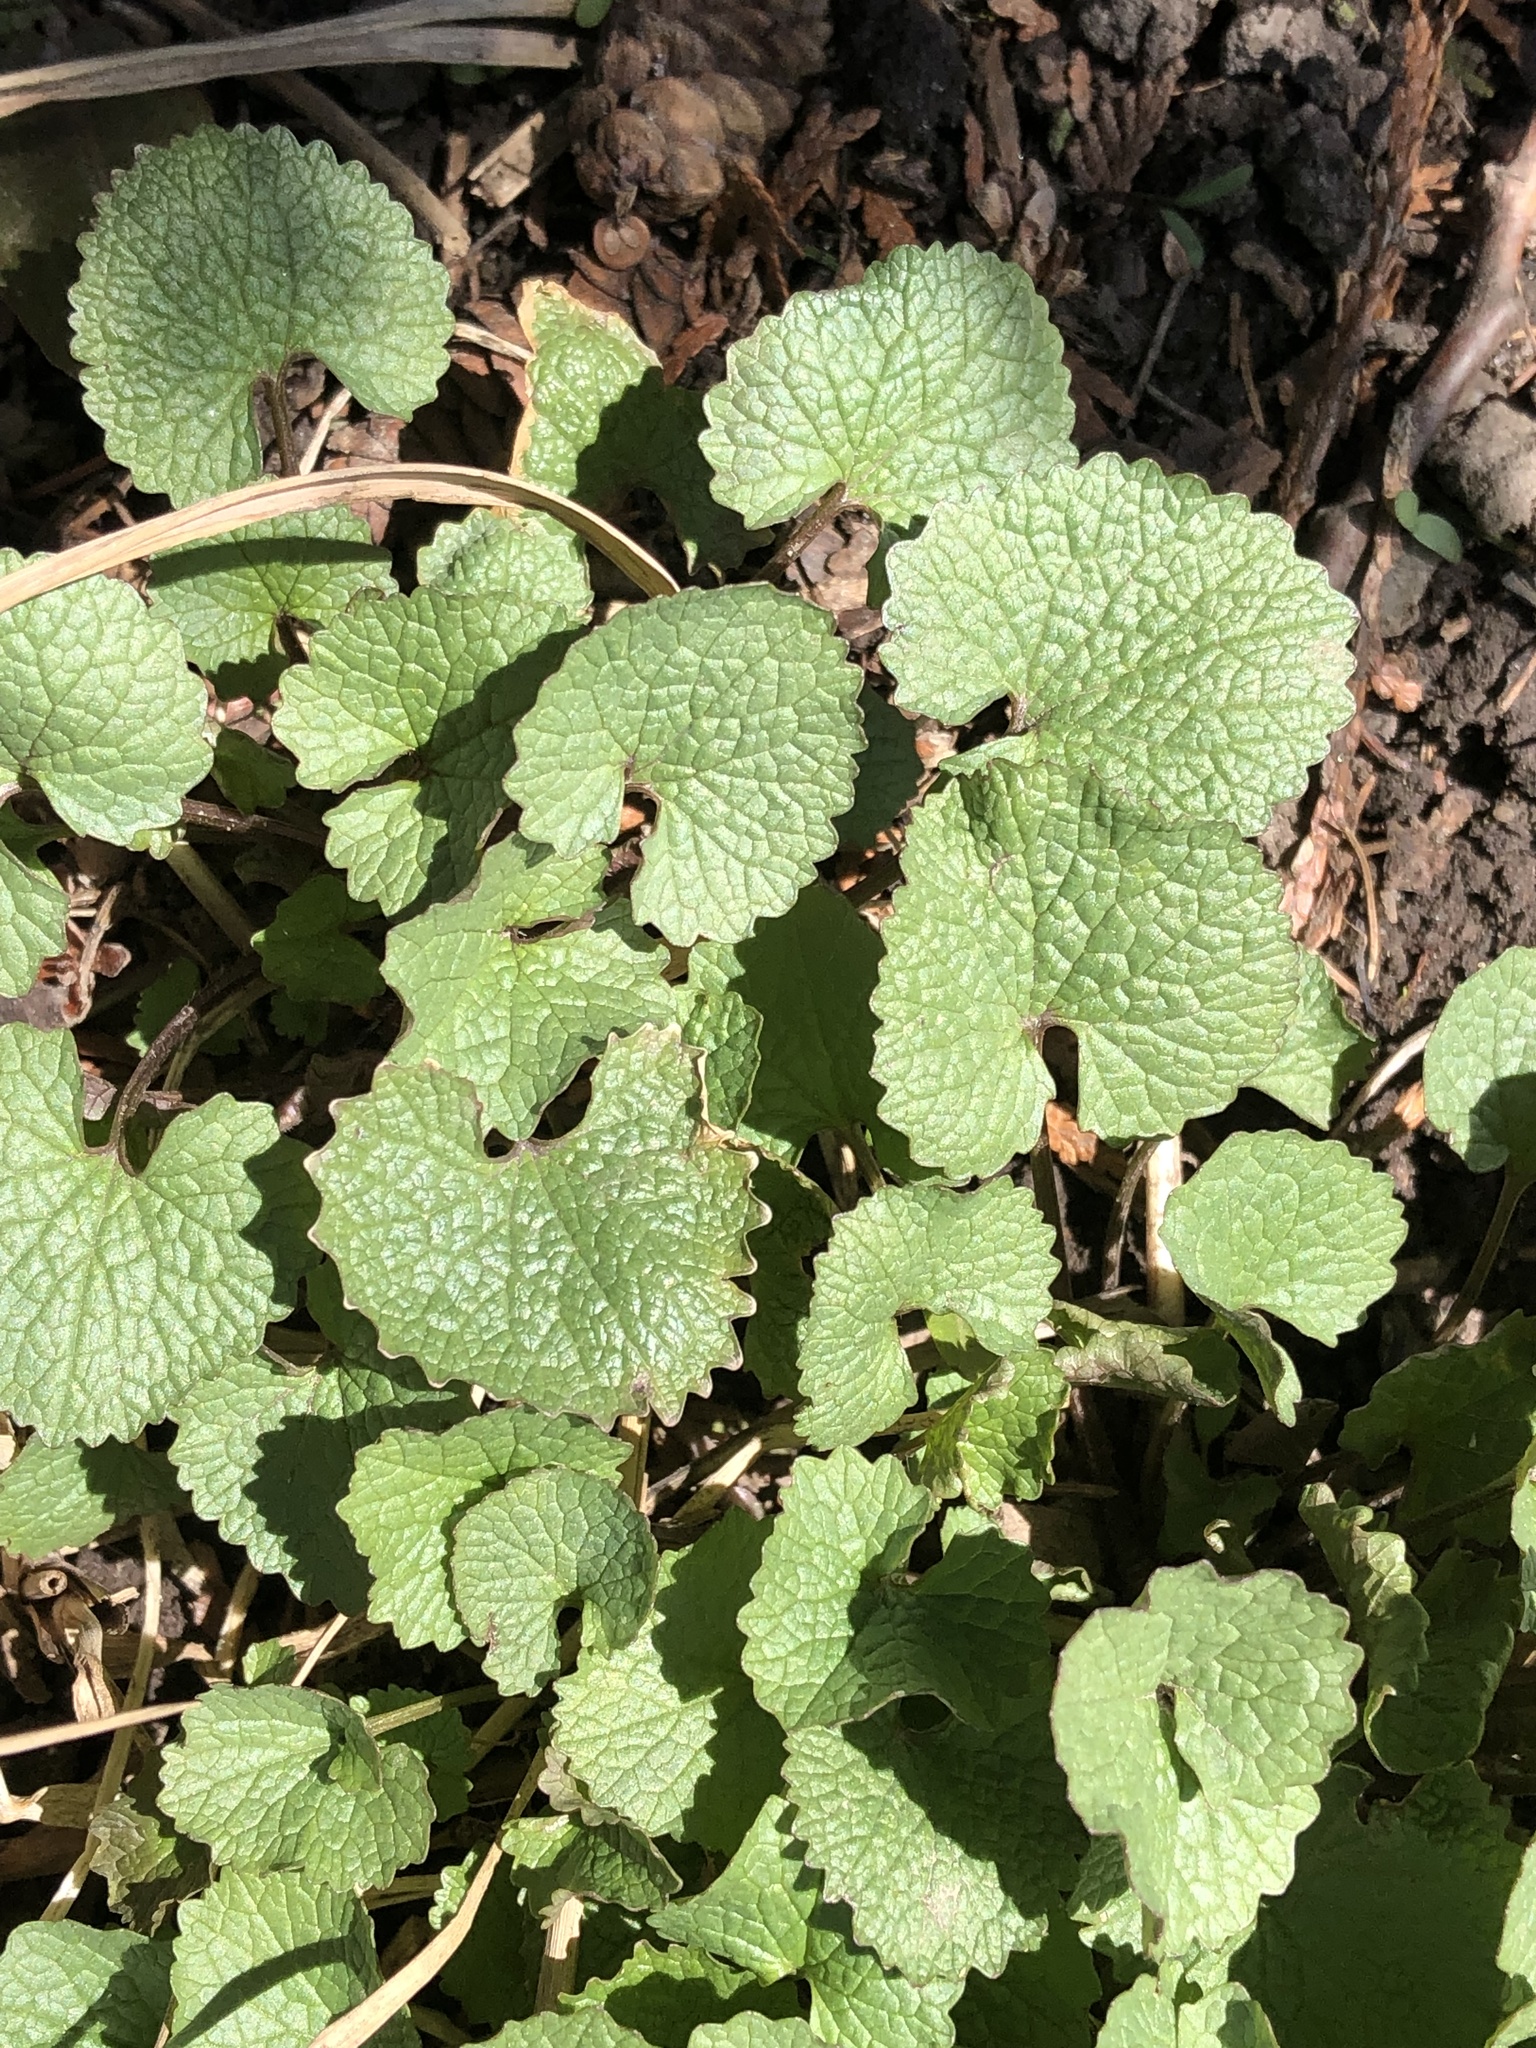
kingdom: Plantae
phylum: Tracheophyta
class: Magnoliopsida
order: Brassicales
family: Brassicaceae
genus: Alliaria
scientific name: Alliaria petiolata
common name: Garlic mustard
